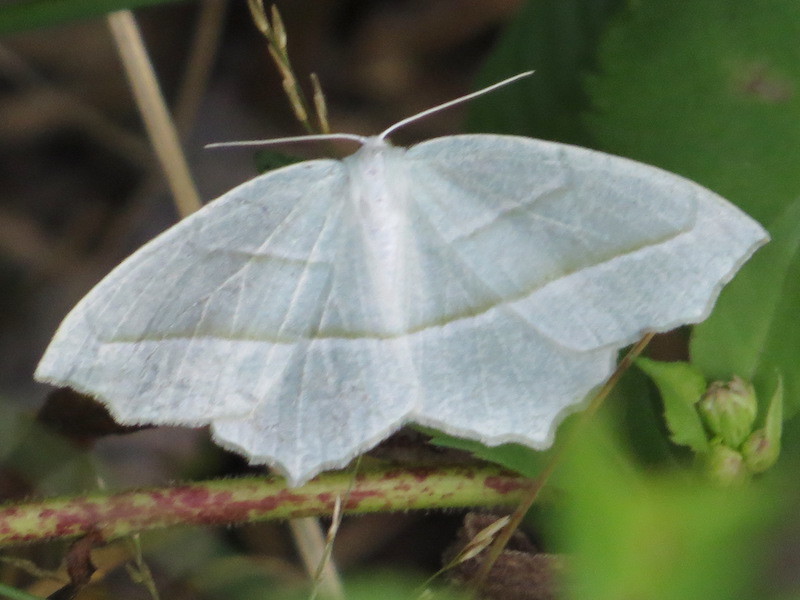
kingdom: Animalia
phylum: Arthropoda
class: Insecta
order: Lepidoptera
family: Geometridae
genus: Campaea
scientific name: Campaea perlata
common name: Fringed looper
